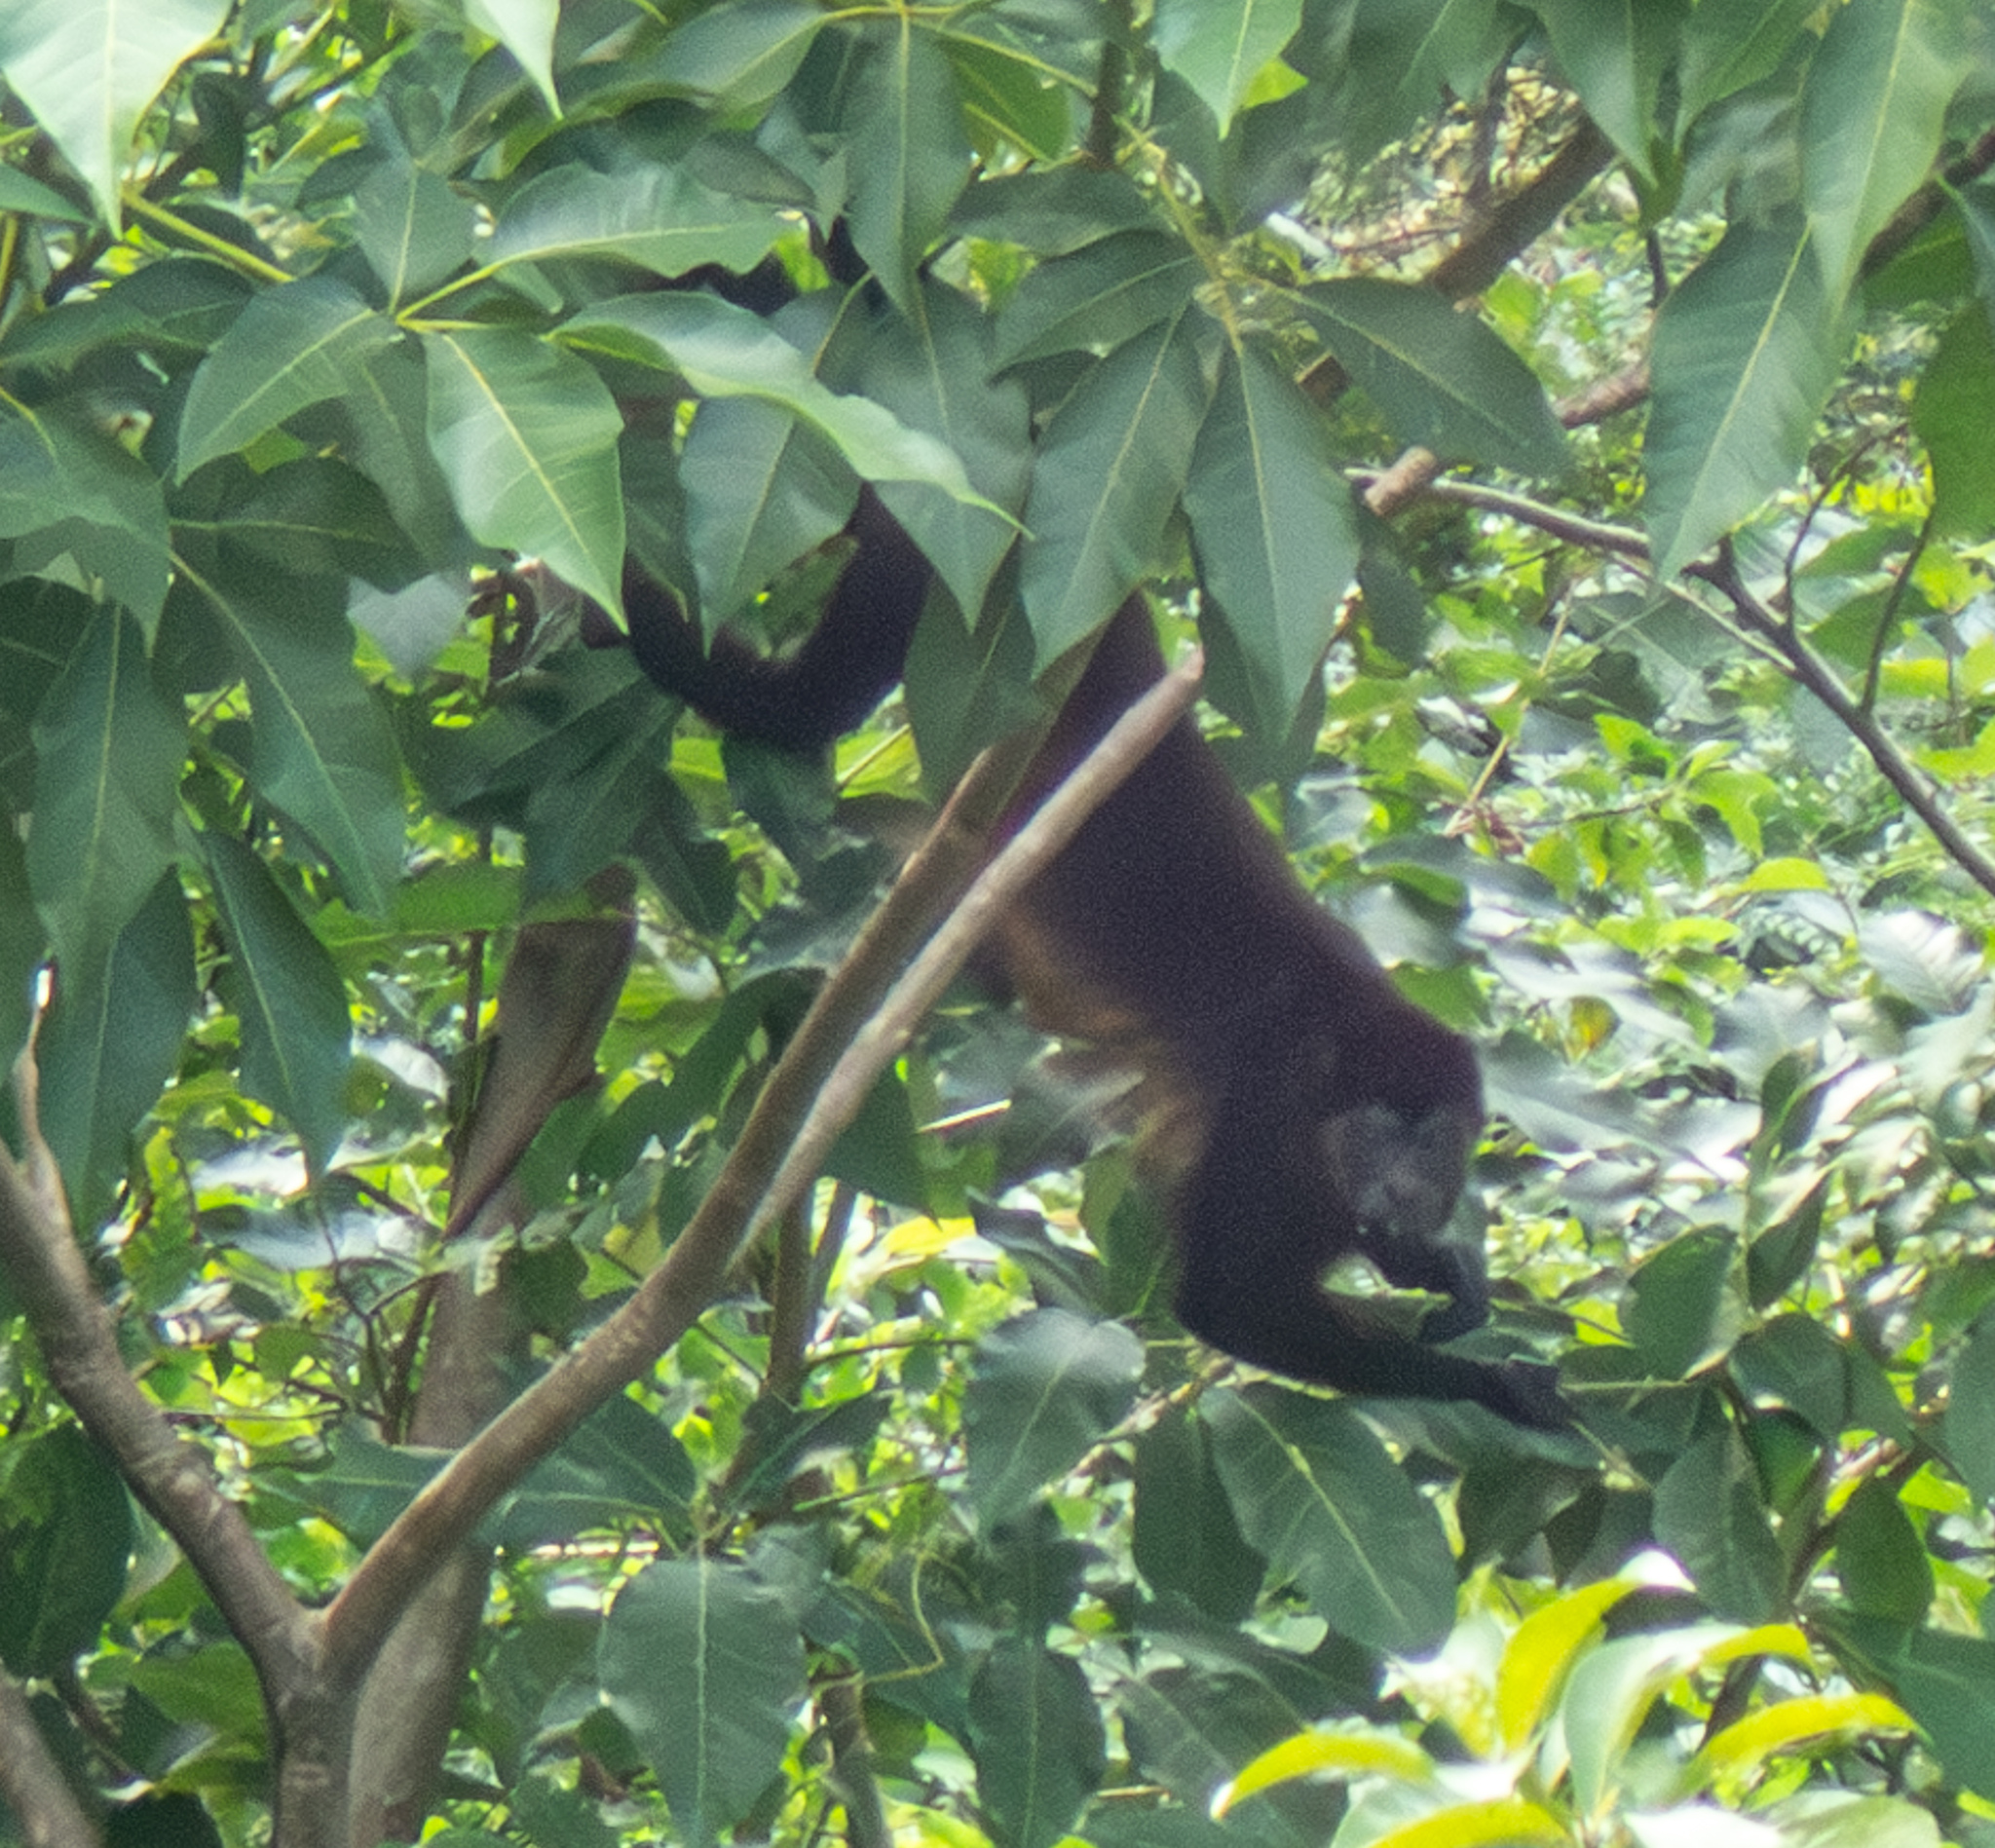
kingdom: Animalia
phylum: Chordata
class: Mammalia
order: Primates
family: Atelidae
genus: Alouatta
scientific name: Alouatta palliata
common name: Mantled howler
